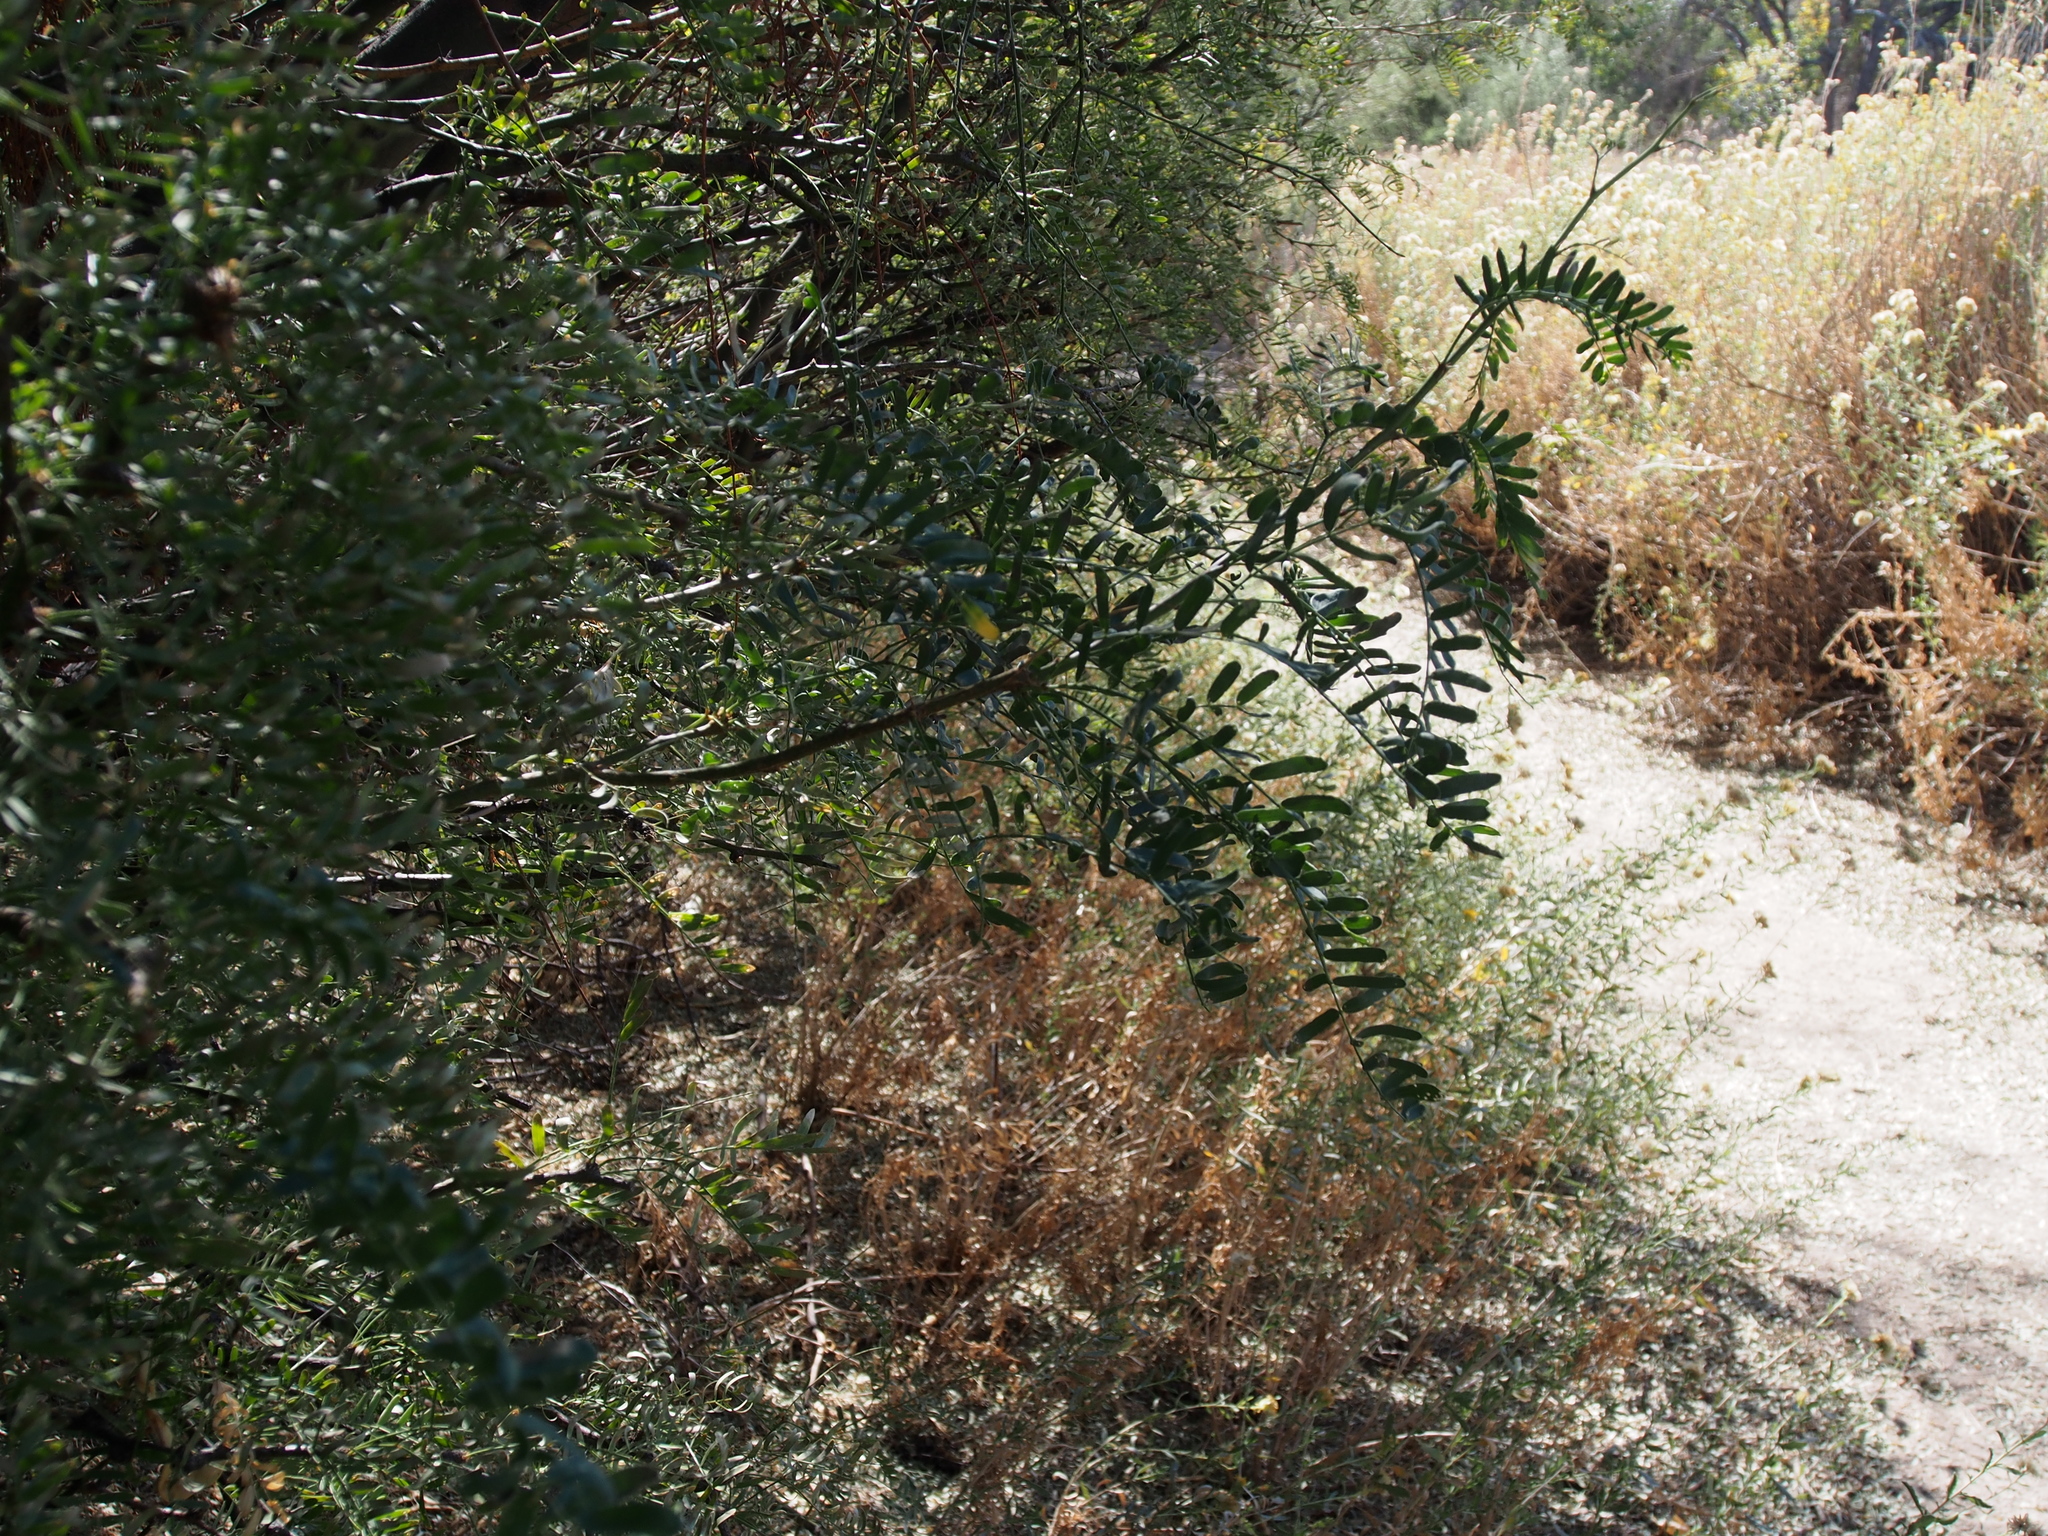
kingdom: Plantae
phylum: Tracheophyta
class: Magnoliopsida
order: Fabales
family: Fabaceae
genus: Prosopis
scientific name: Prosopis pubescens
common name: Screw-bean
